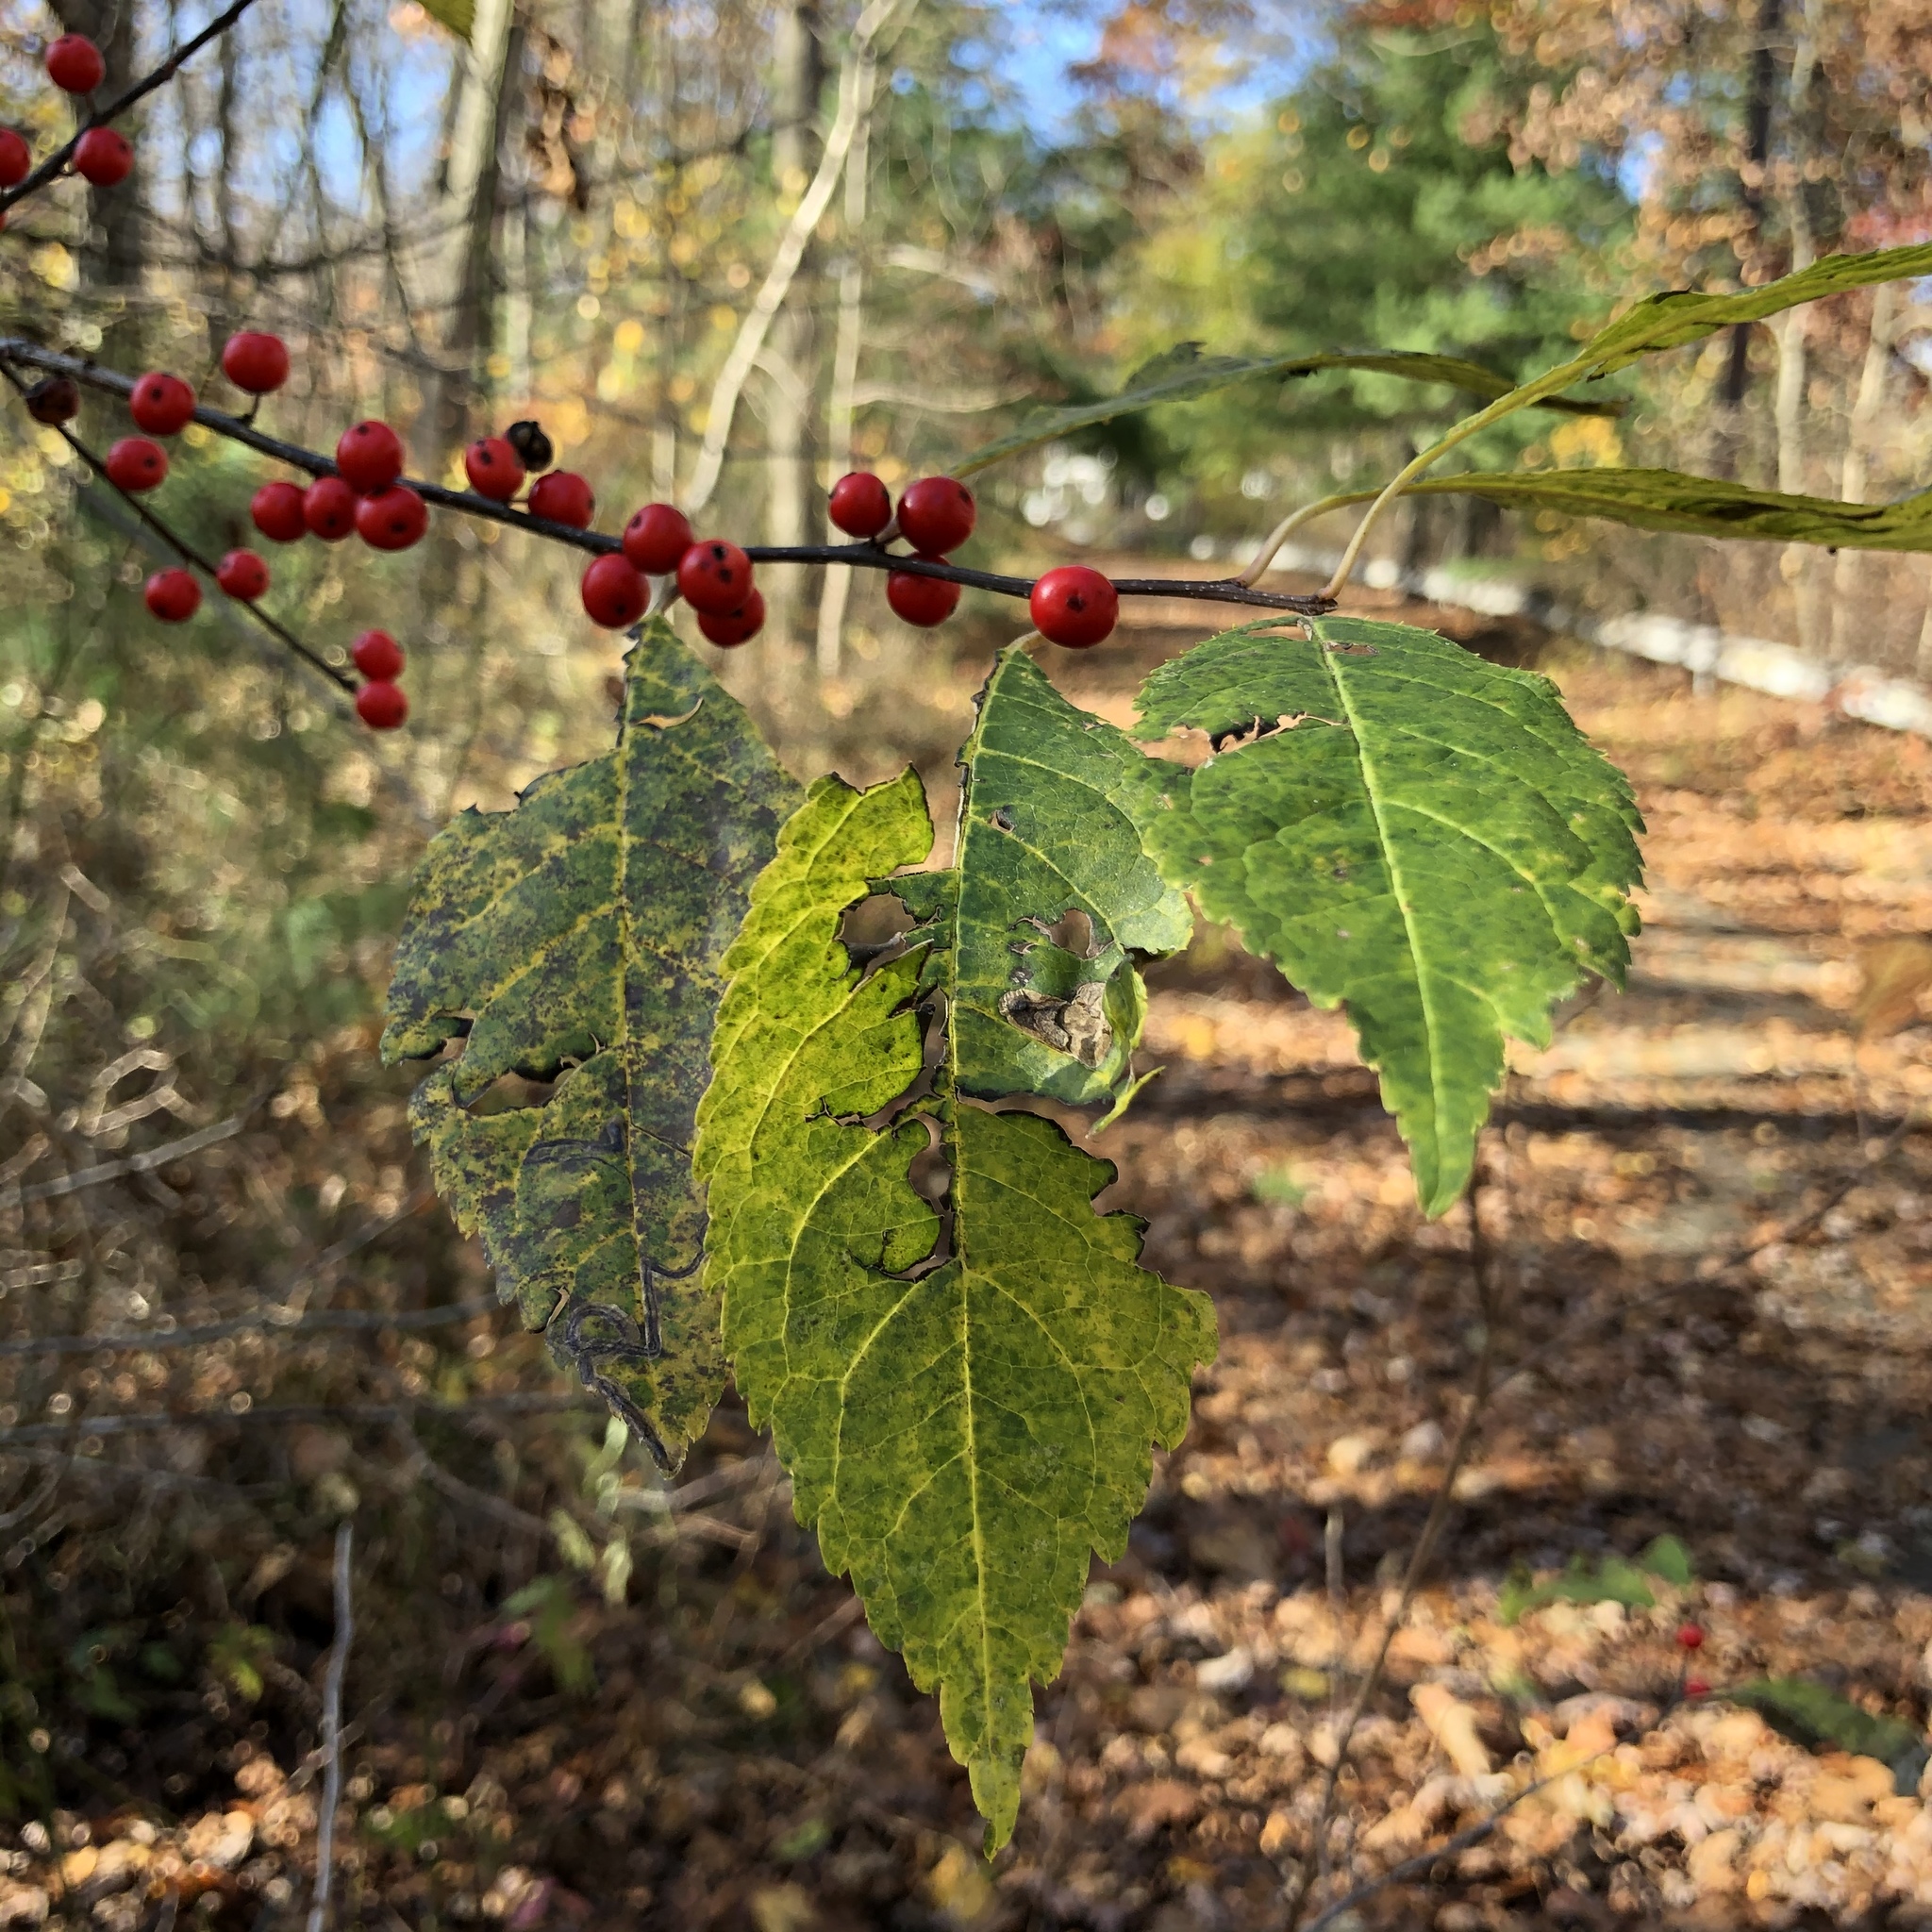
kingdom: Plantae
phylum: Tracheophyta
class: Magnoliopsida
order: Aquifoliales
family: Aquifoliaceae
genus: Ilex
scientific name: Ilex verticillata
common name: Virginia winterberry
